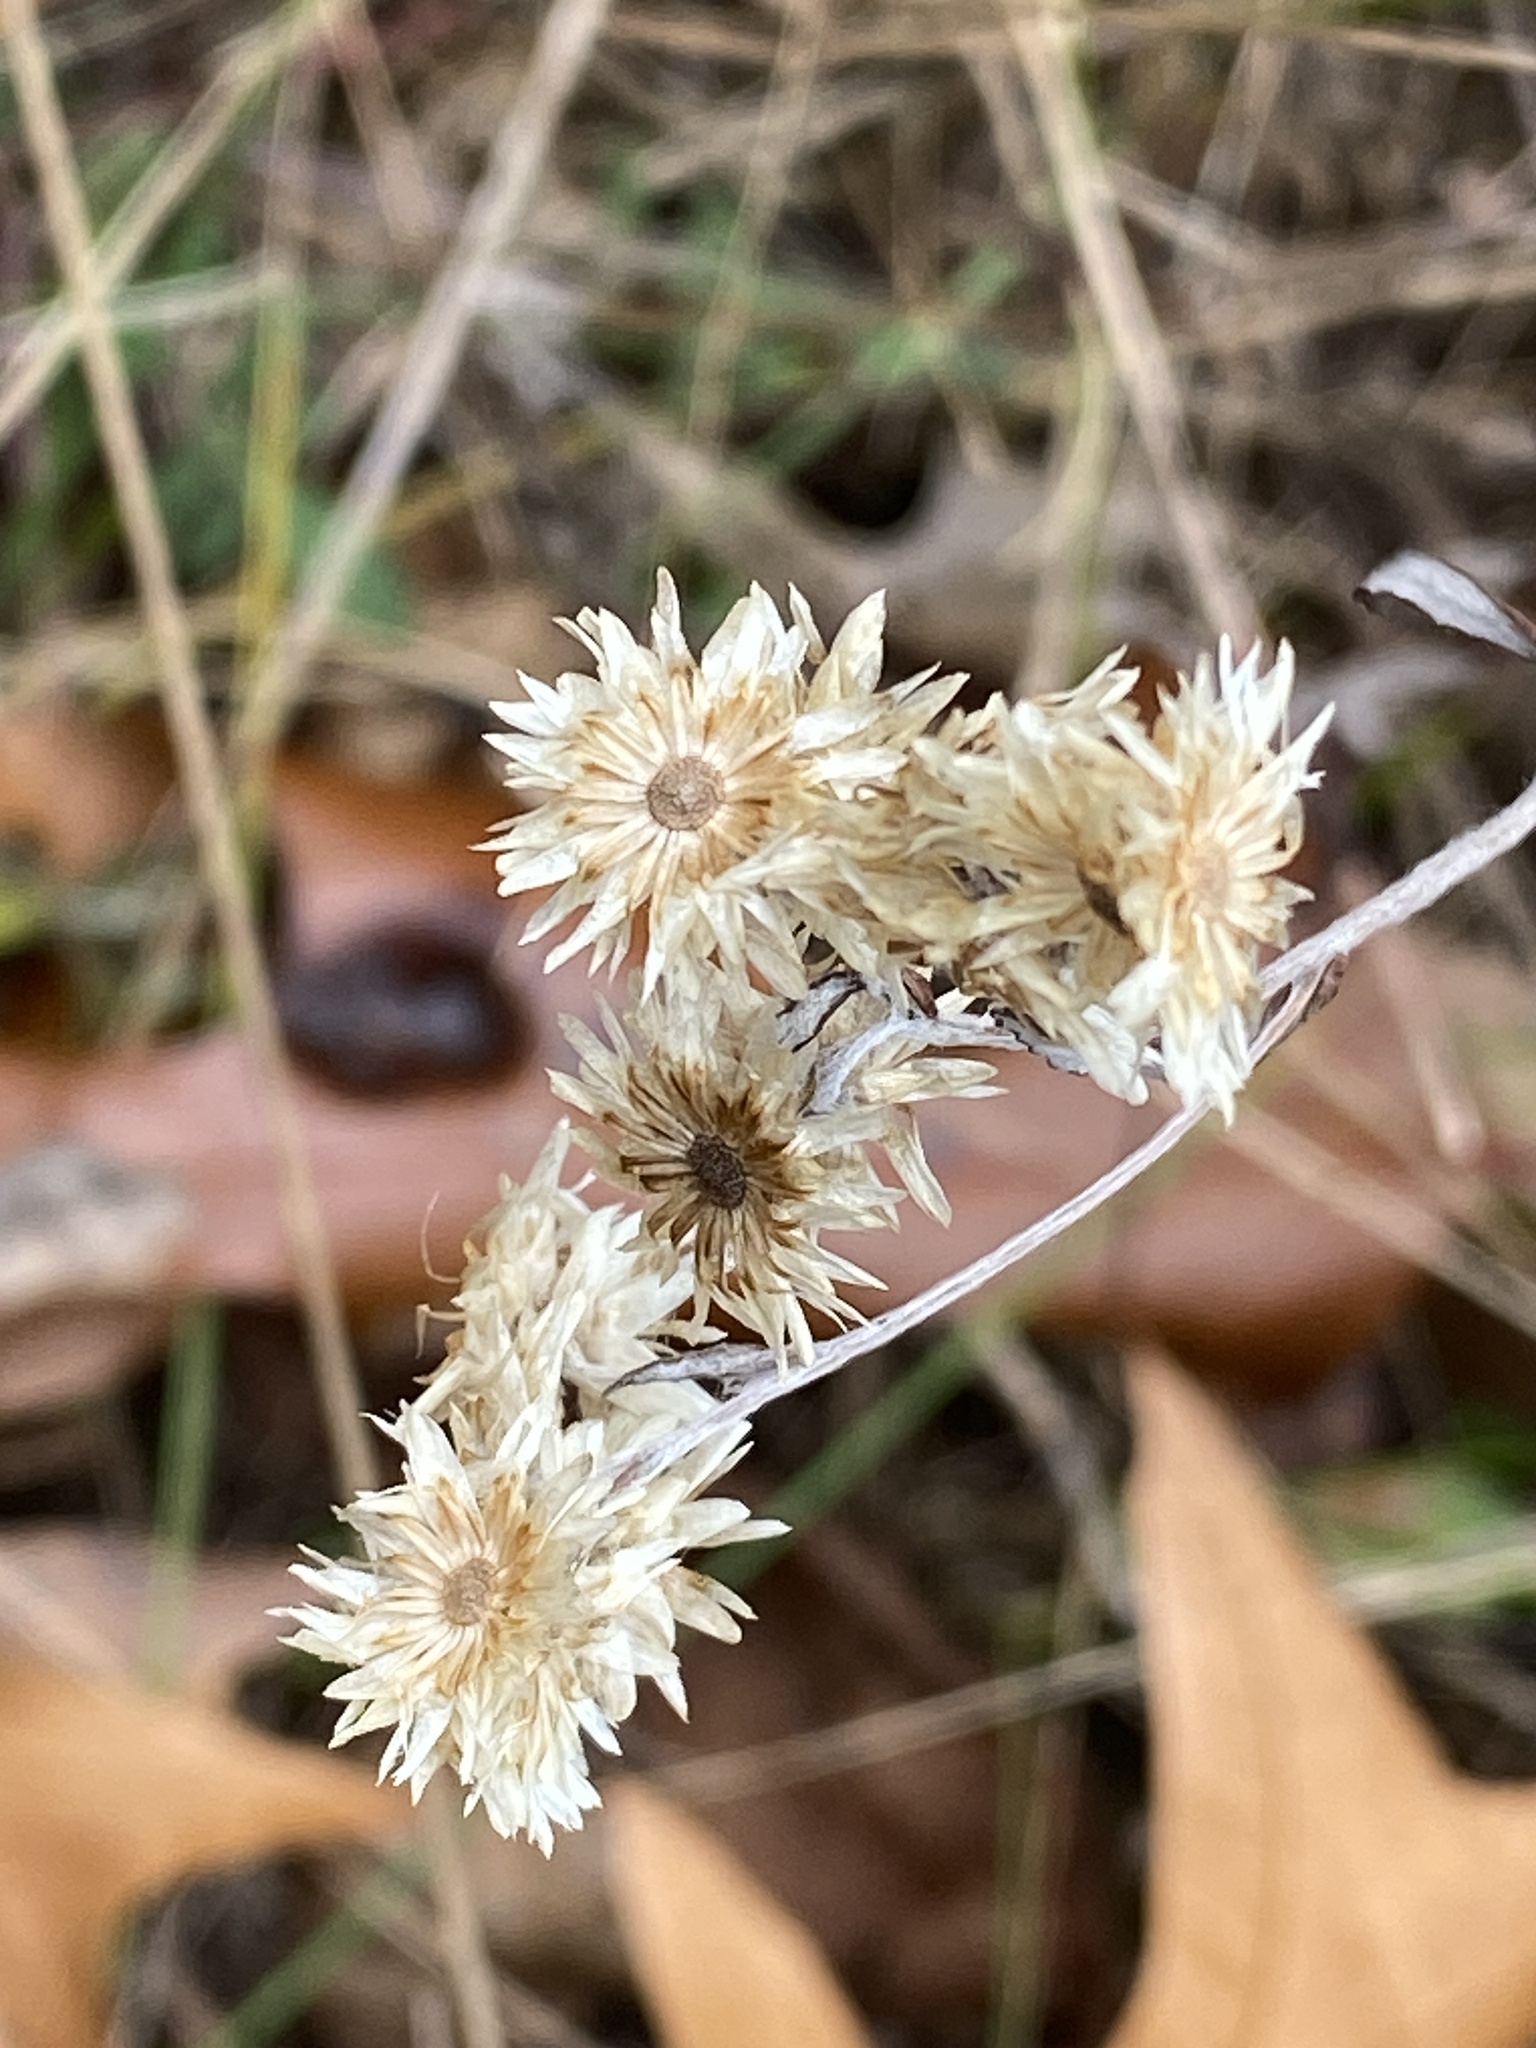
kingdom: Plantae
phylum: Tracheophyta
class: Magnoliopsida
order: Asterales
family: Asteraceae
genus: Pseudognaphalium
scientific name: Pseudognaphalium obtusifolium
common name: Eastern rabbit-tobacco
